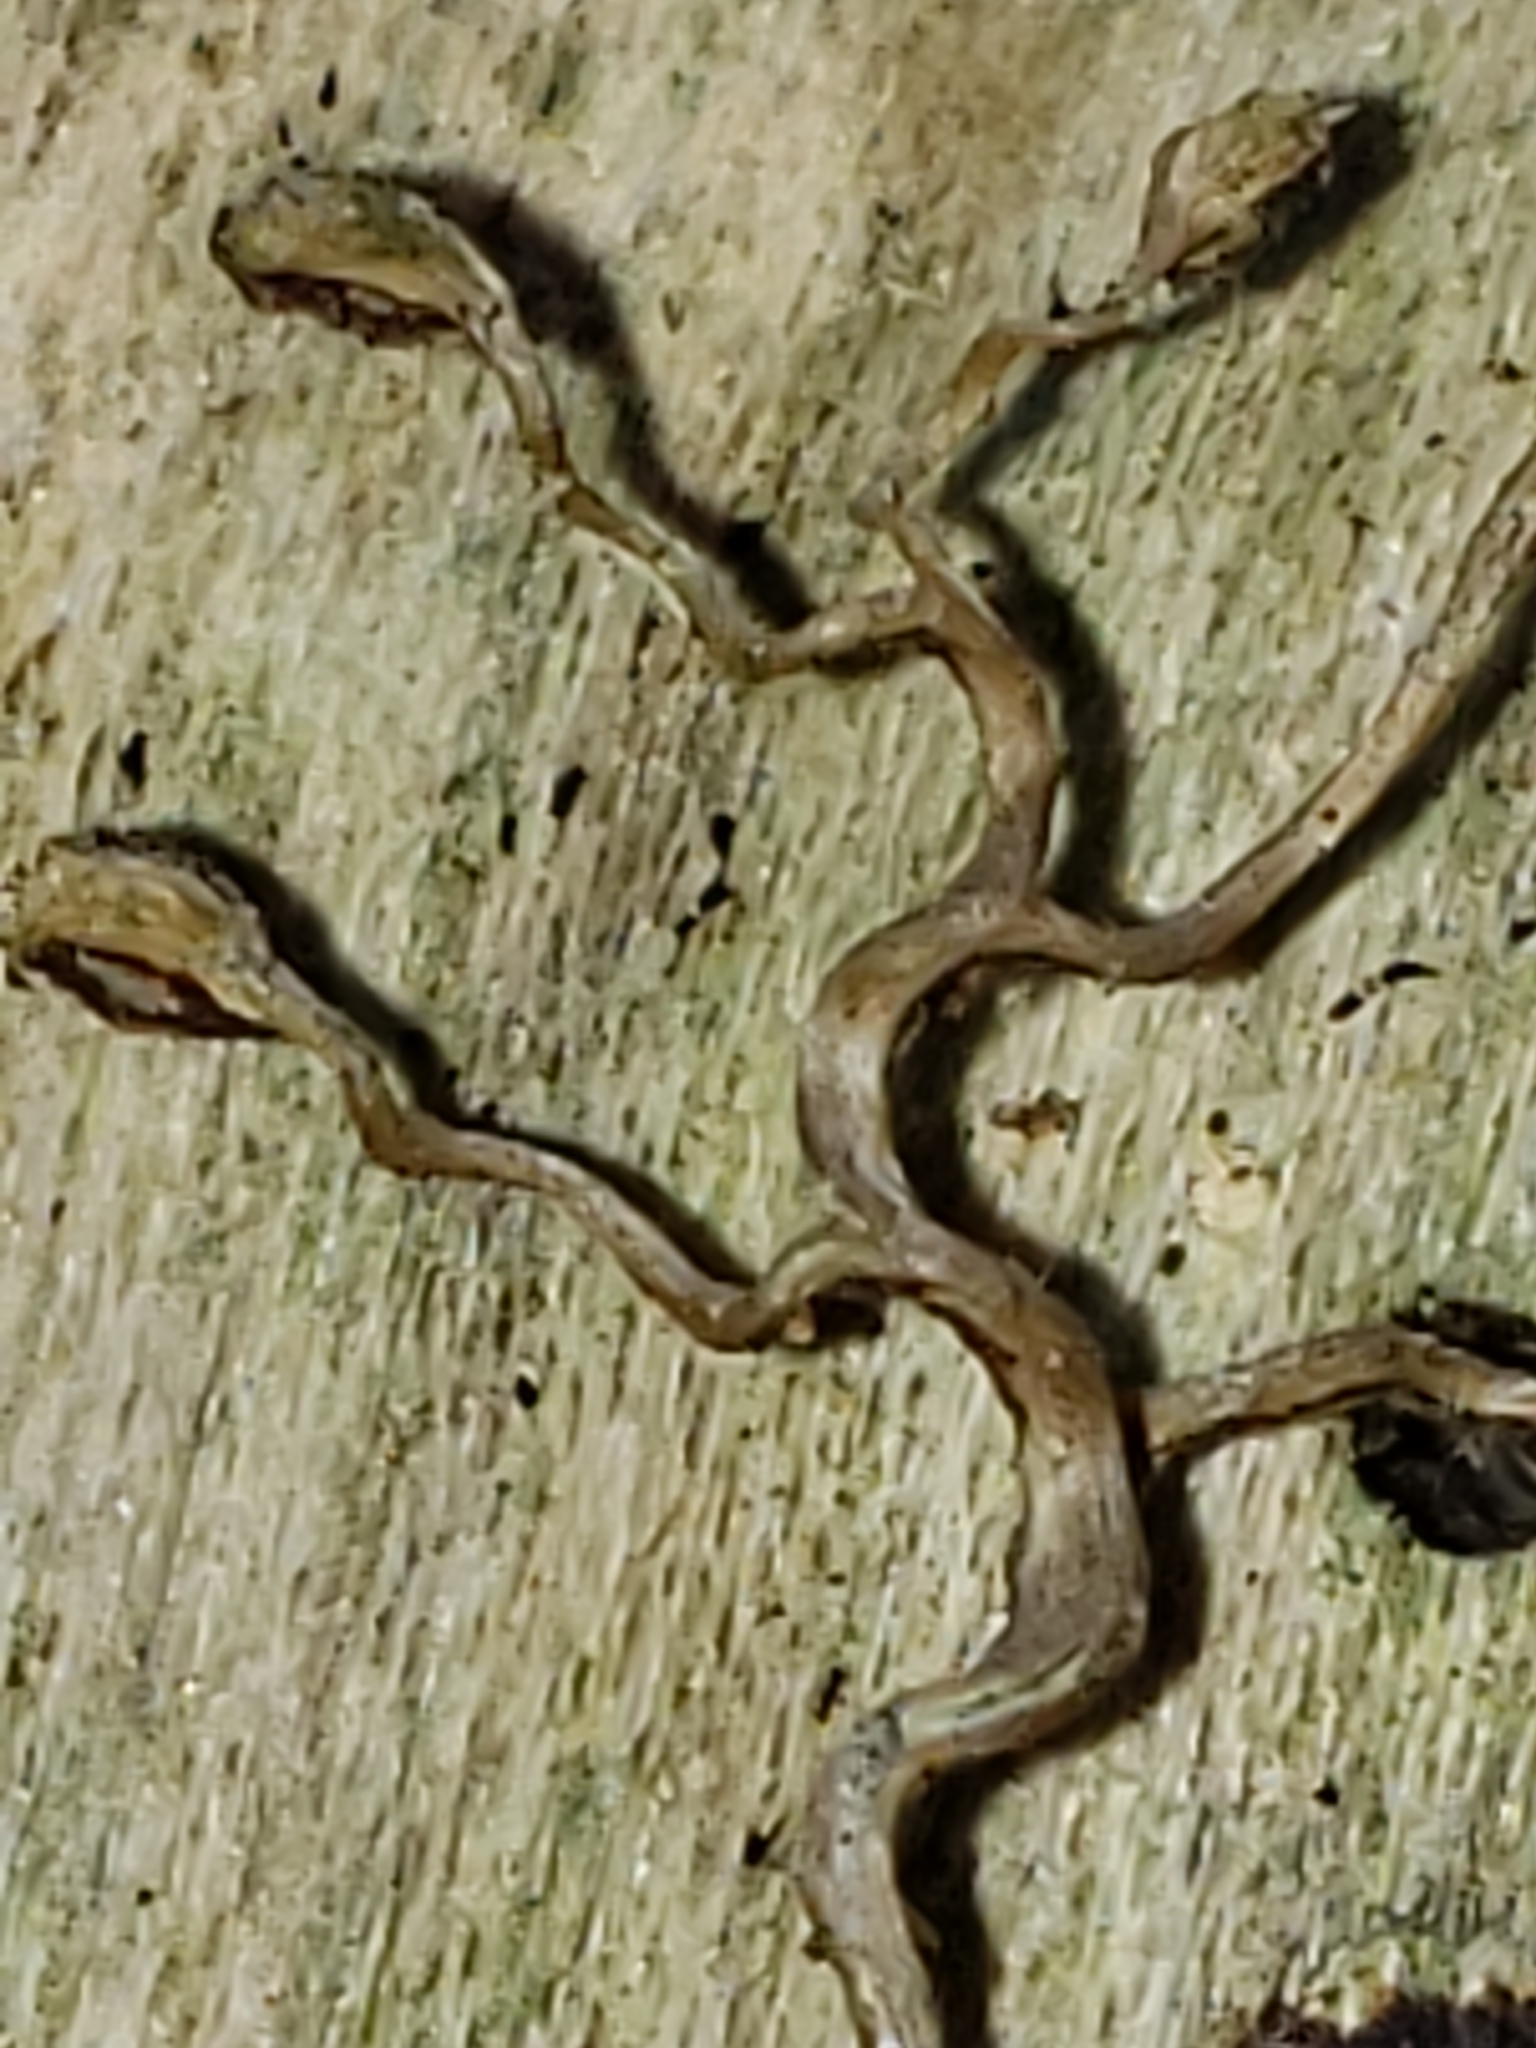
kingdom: Plantae
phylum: Tracheophyta
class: Magnoliopsida
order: Vitales
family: Vitaceae
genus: Parthenocissus
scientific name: Parthenocissus quinquefolia
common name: Virginia-creeper
